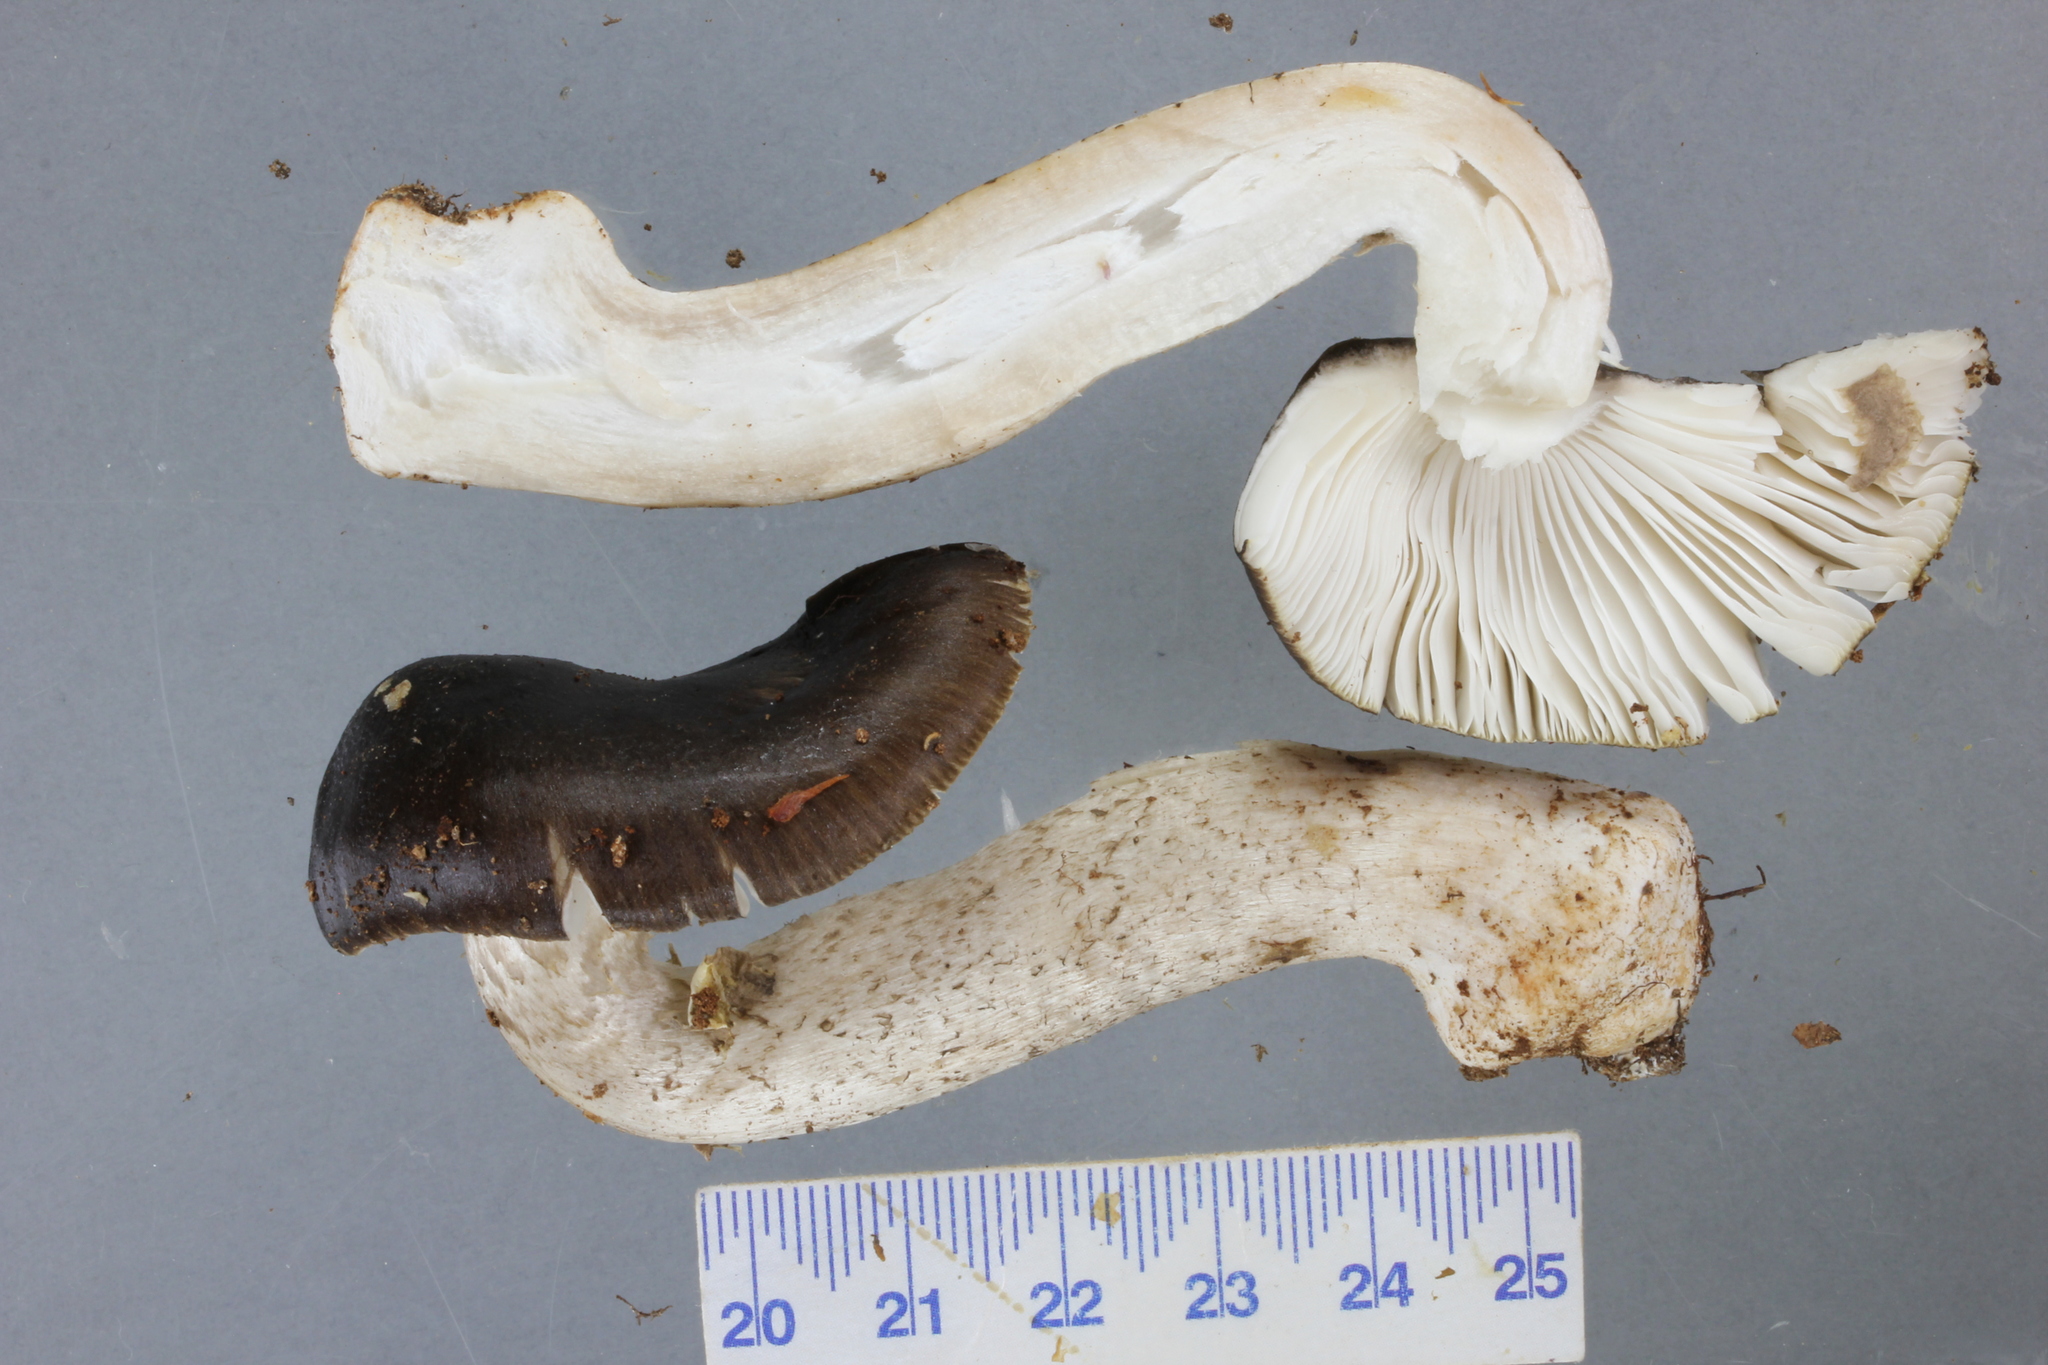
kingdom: Fungi
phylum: Basidiomycota
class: Agaricomycetes
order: Agaricales
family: Amanitaceae
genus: Amanita
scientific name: Amanita nothofagi
